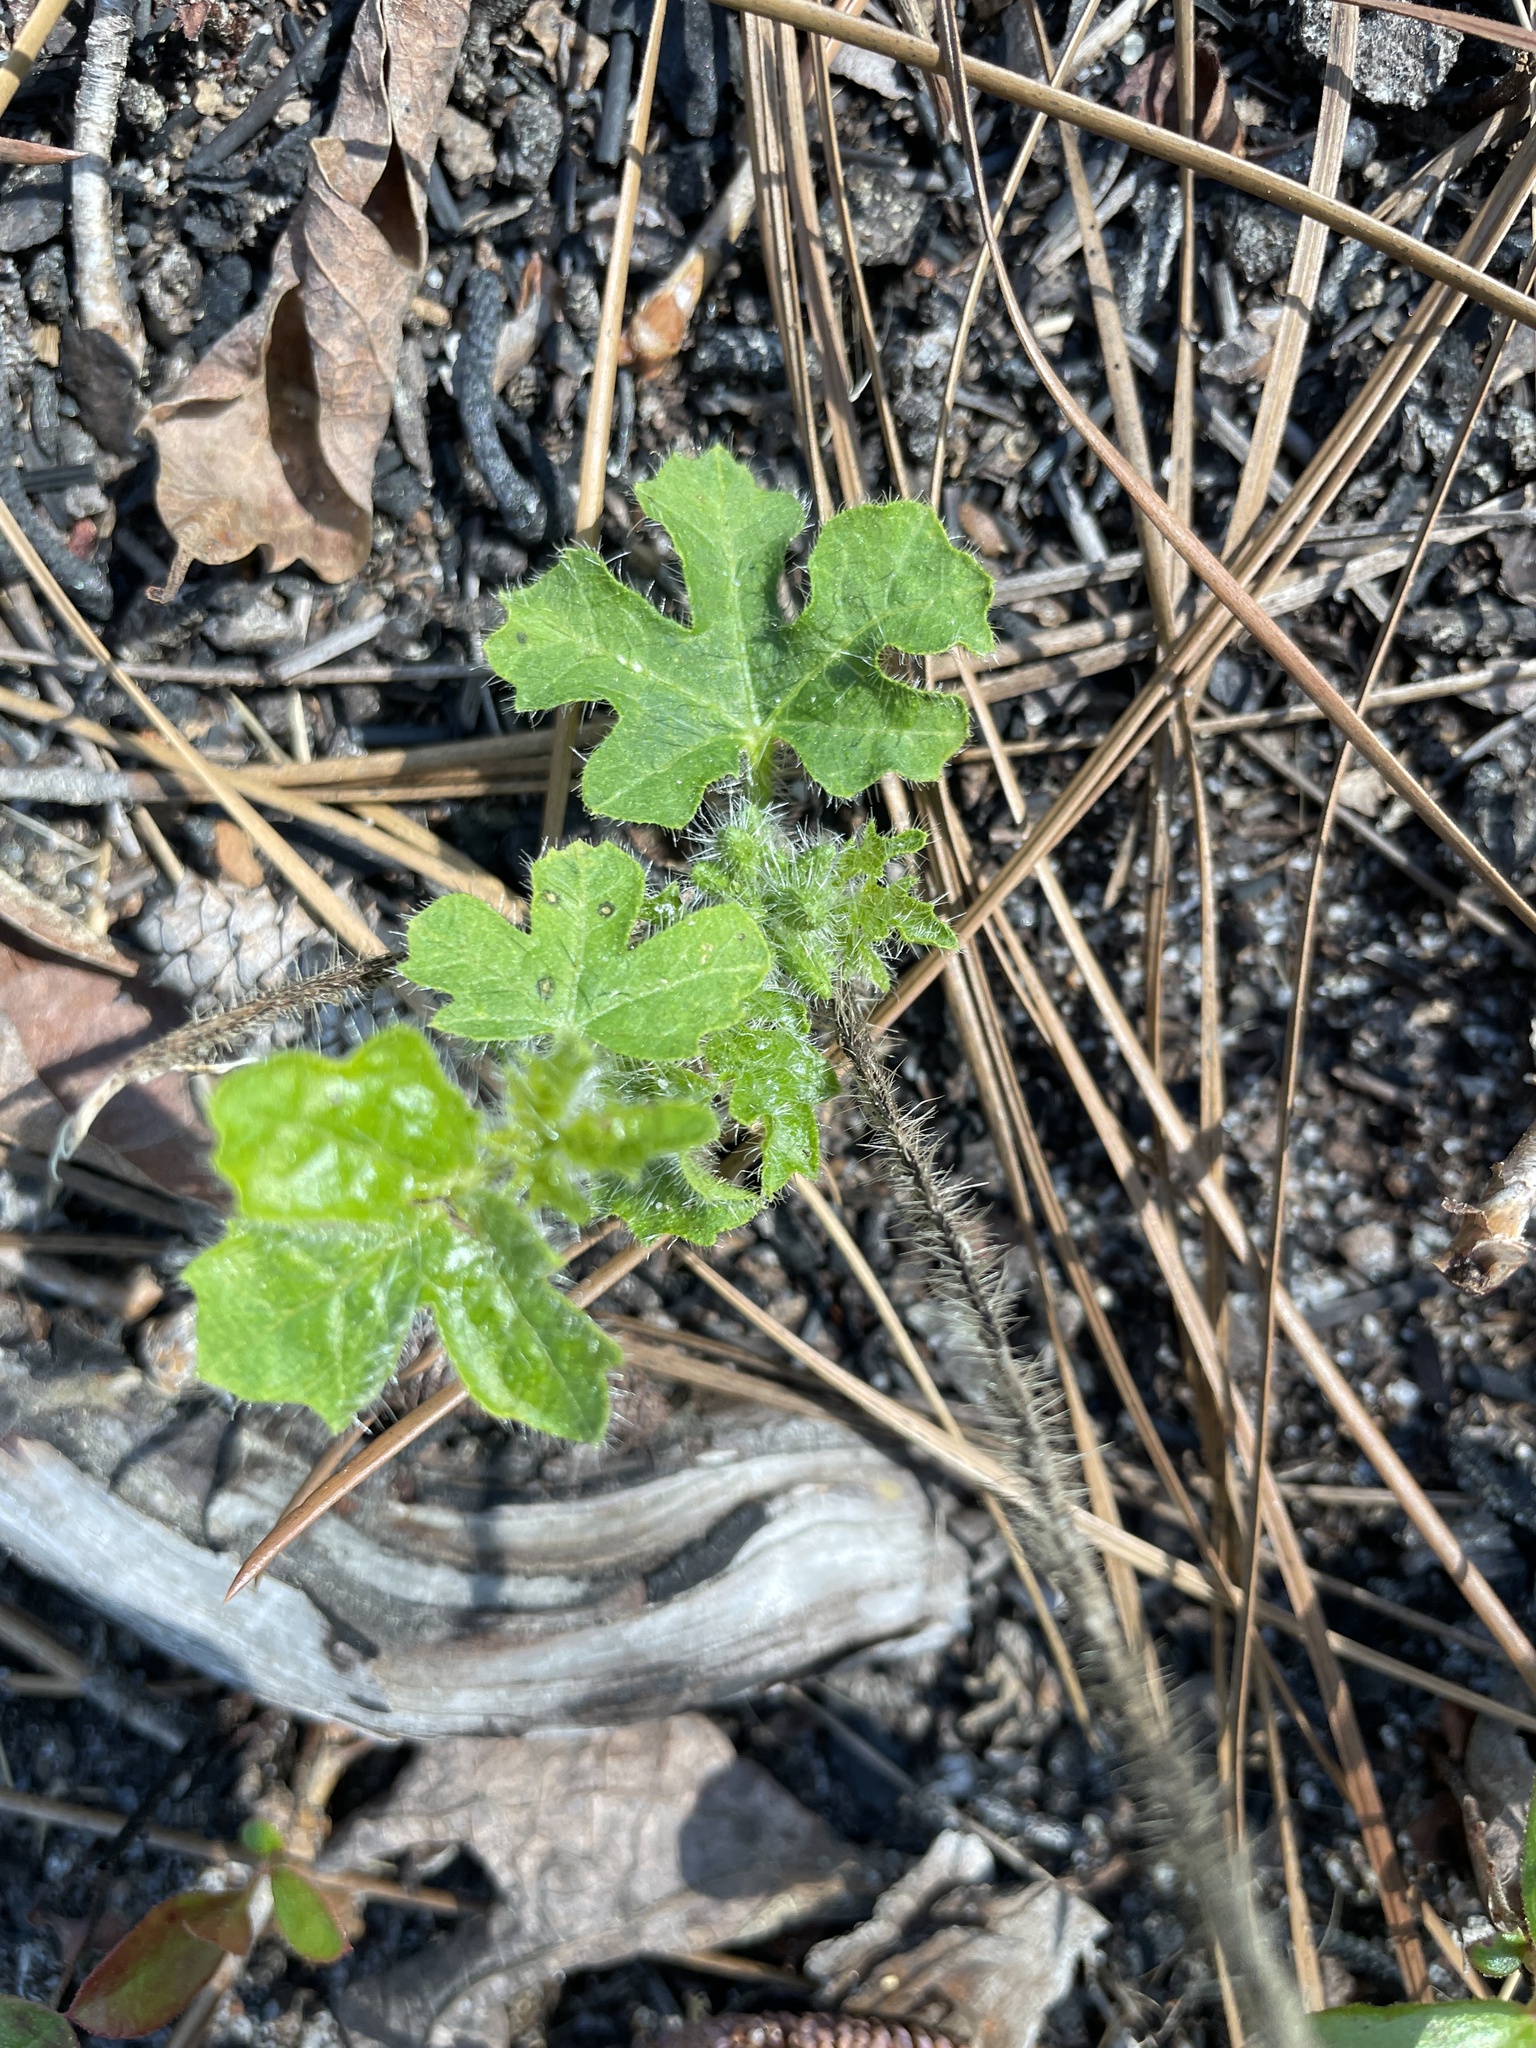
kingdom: Plantae
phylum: Tracheophyta
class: Magnoliopsida
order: Malpighiales
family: Euphorbiaceae
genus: Cnidoscolus
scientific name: Cnidoscolus stimulosus
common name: Bull-nettle
